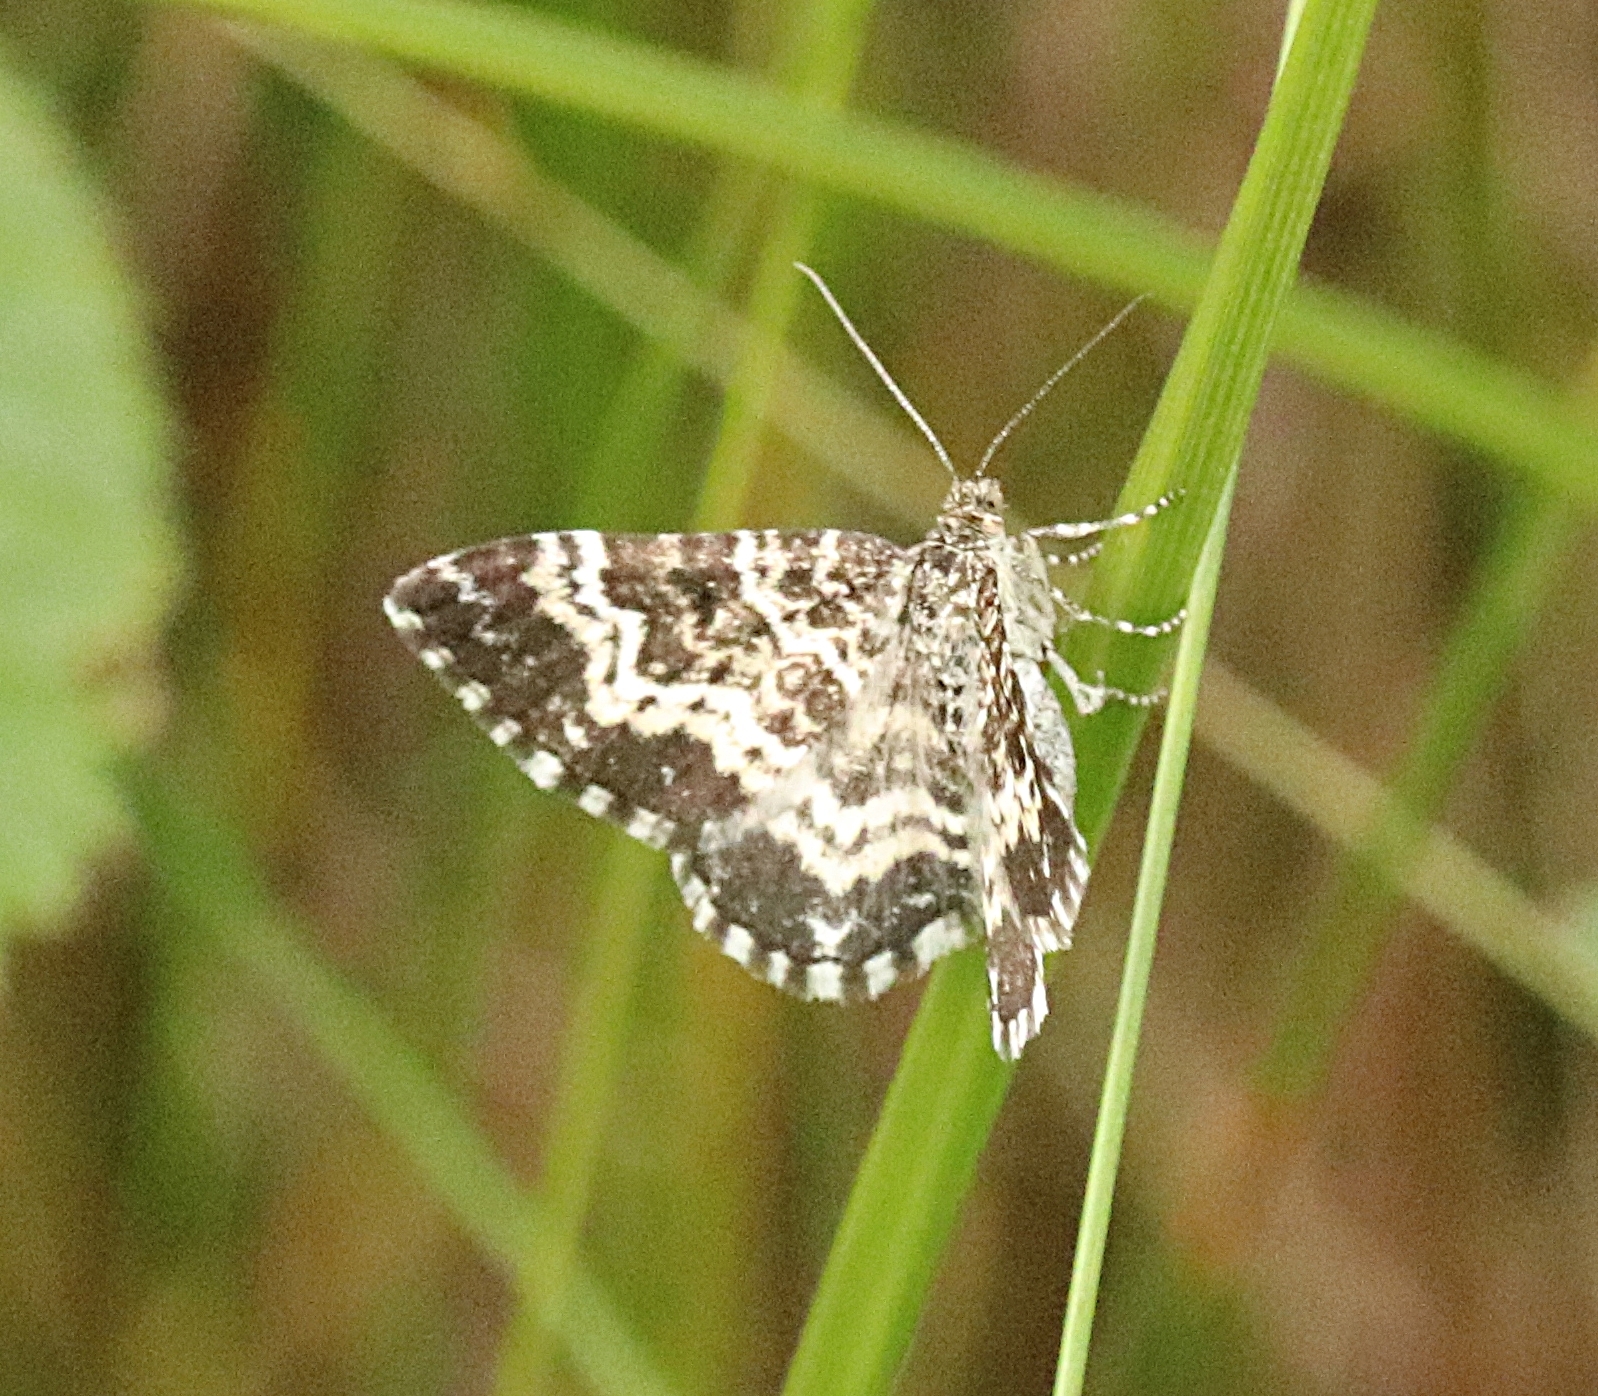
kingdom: Animalia
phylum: Arthropoda
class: Insecta
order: Lepidoptera
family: Geometridae
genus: Epirrhoe
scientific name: Epirrhoe tristata
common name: Small argent & sable
